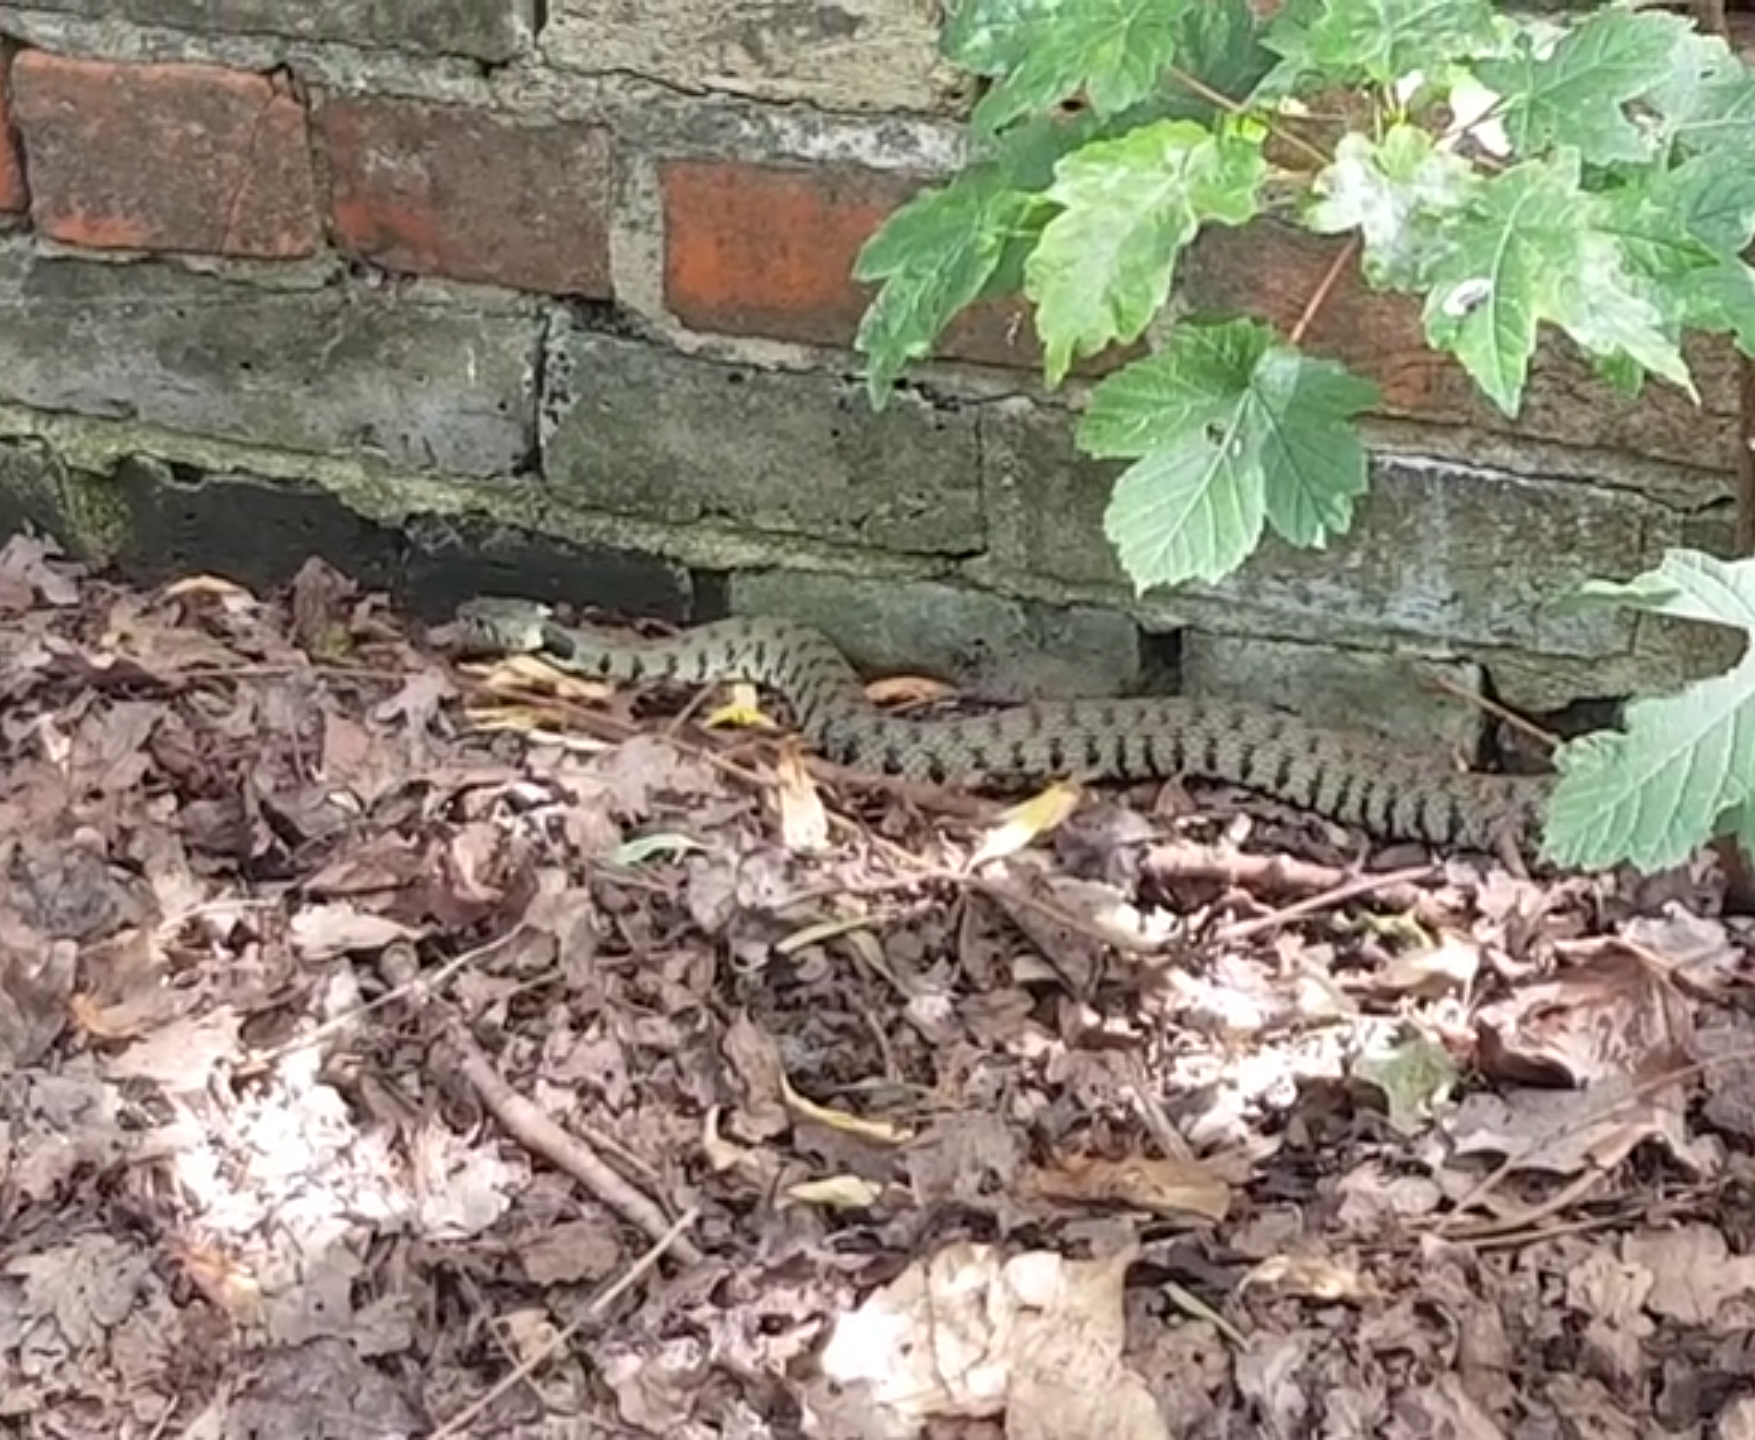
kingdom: Animalia
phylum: Chordata
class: Squamata
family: Colubridae
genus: Natrix
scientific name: Natrix helvetica
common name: Banded grass snake
